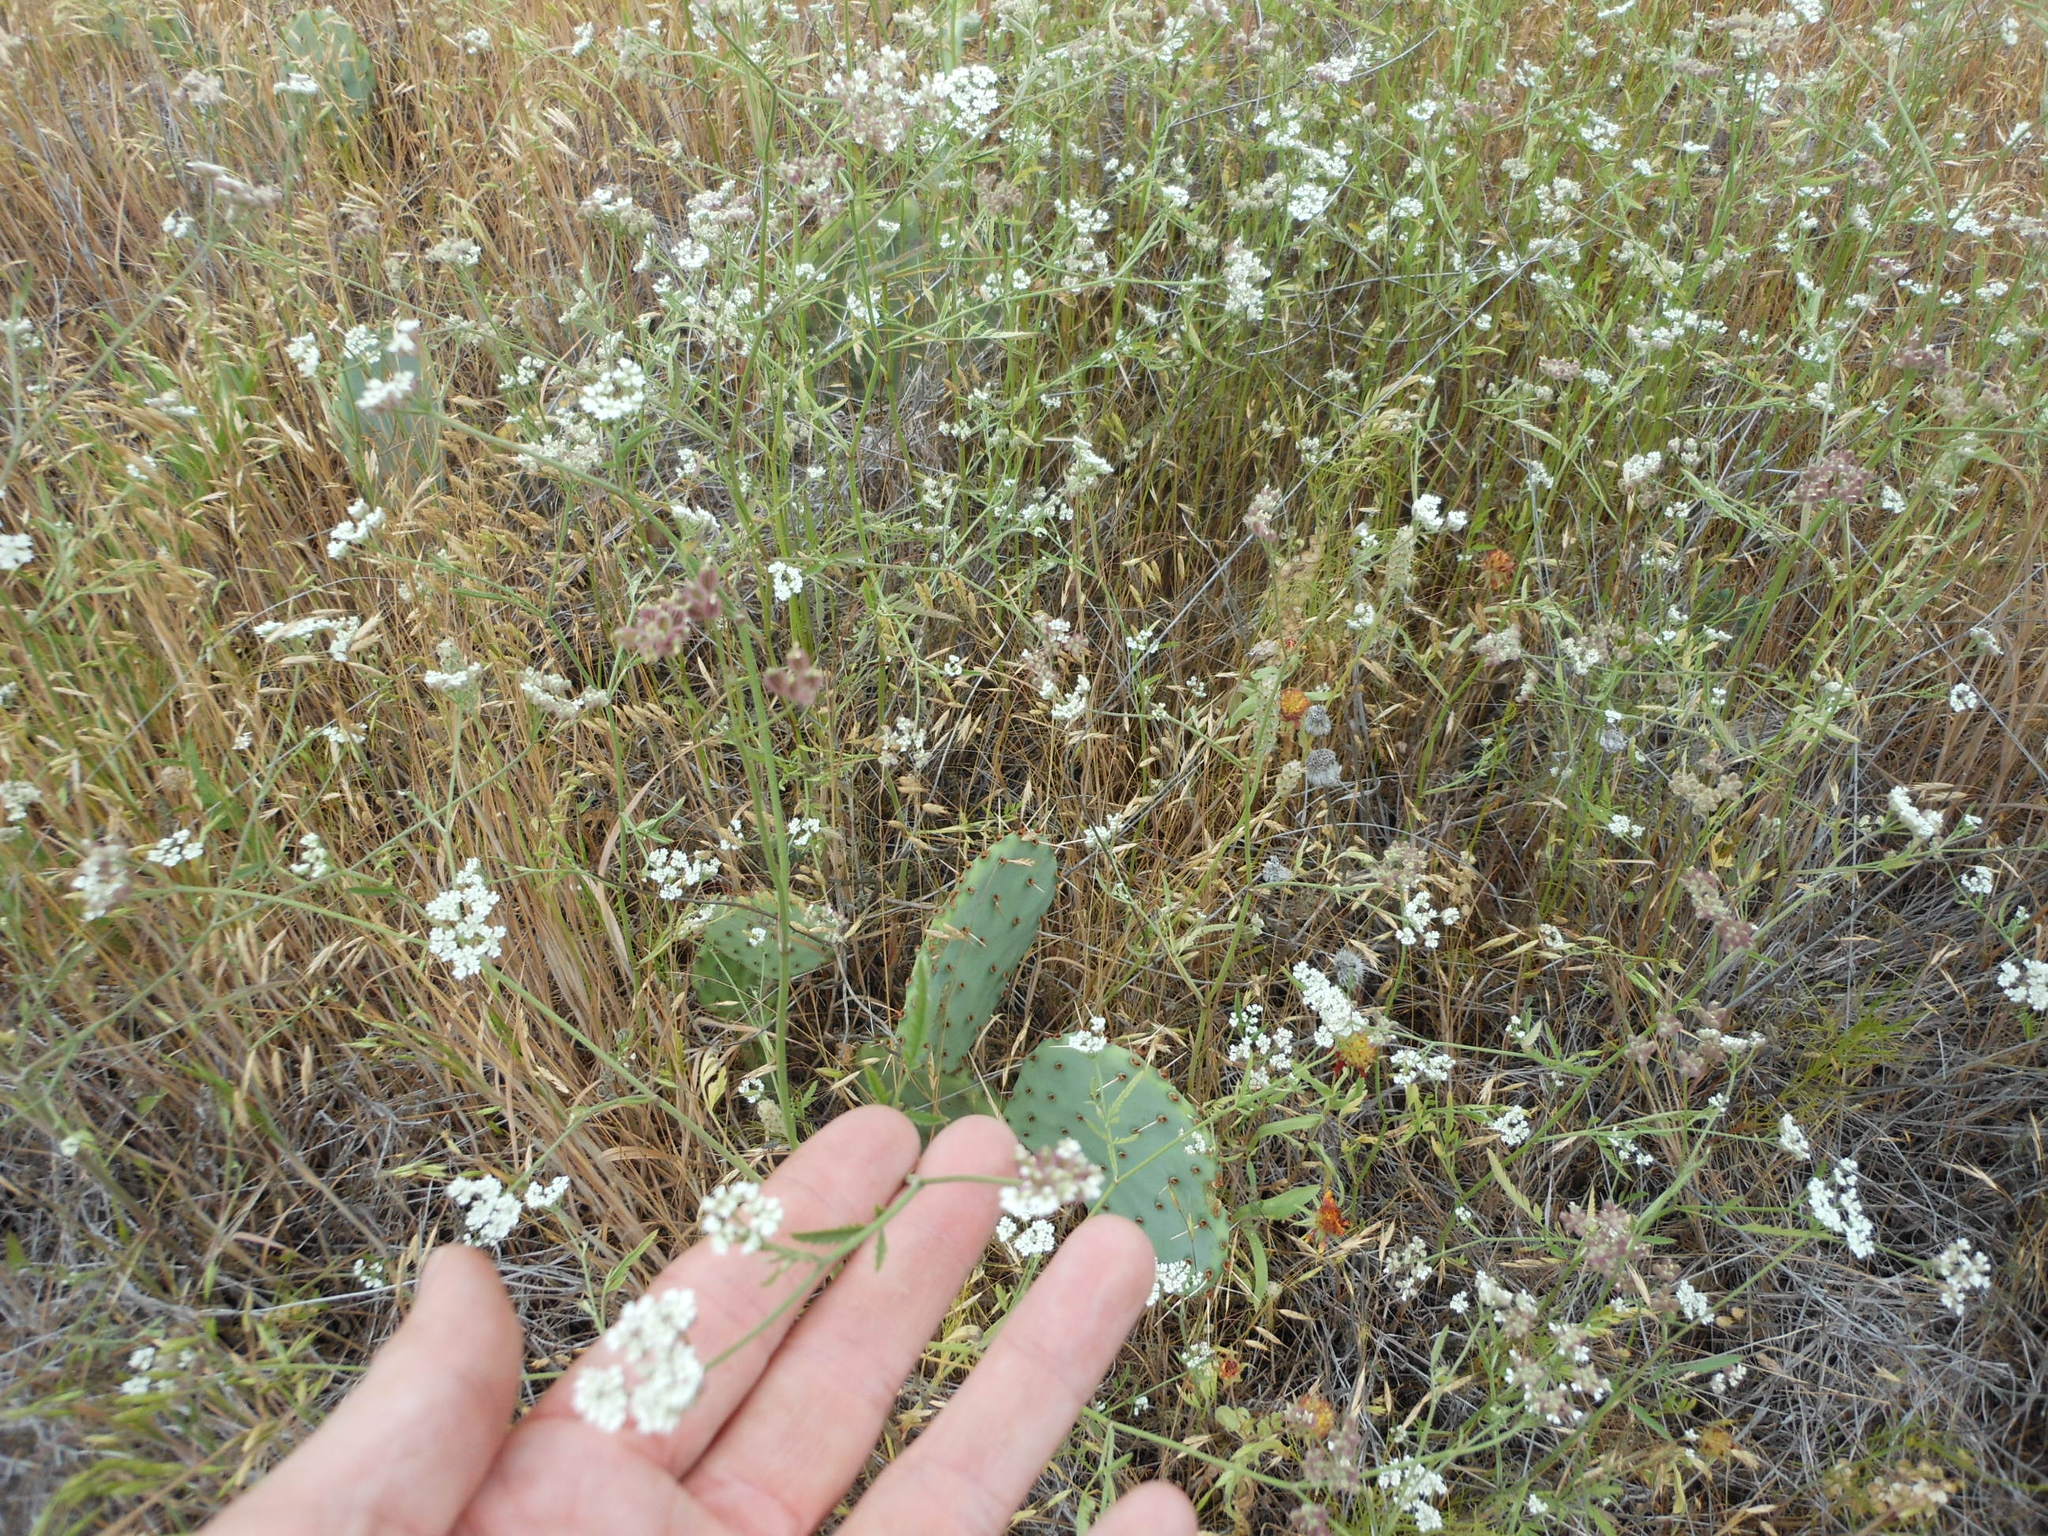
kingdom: Plantae
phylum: Tracheophyta
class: Magnoliopsida
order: Apiales
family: Apiaceae
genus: Torilis
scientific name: Torilis arvensis
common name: Spreading hedge-parsley
